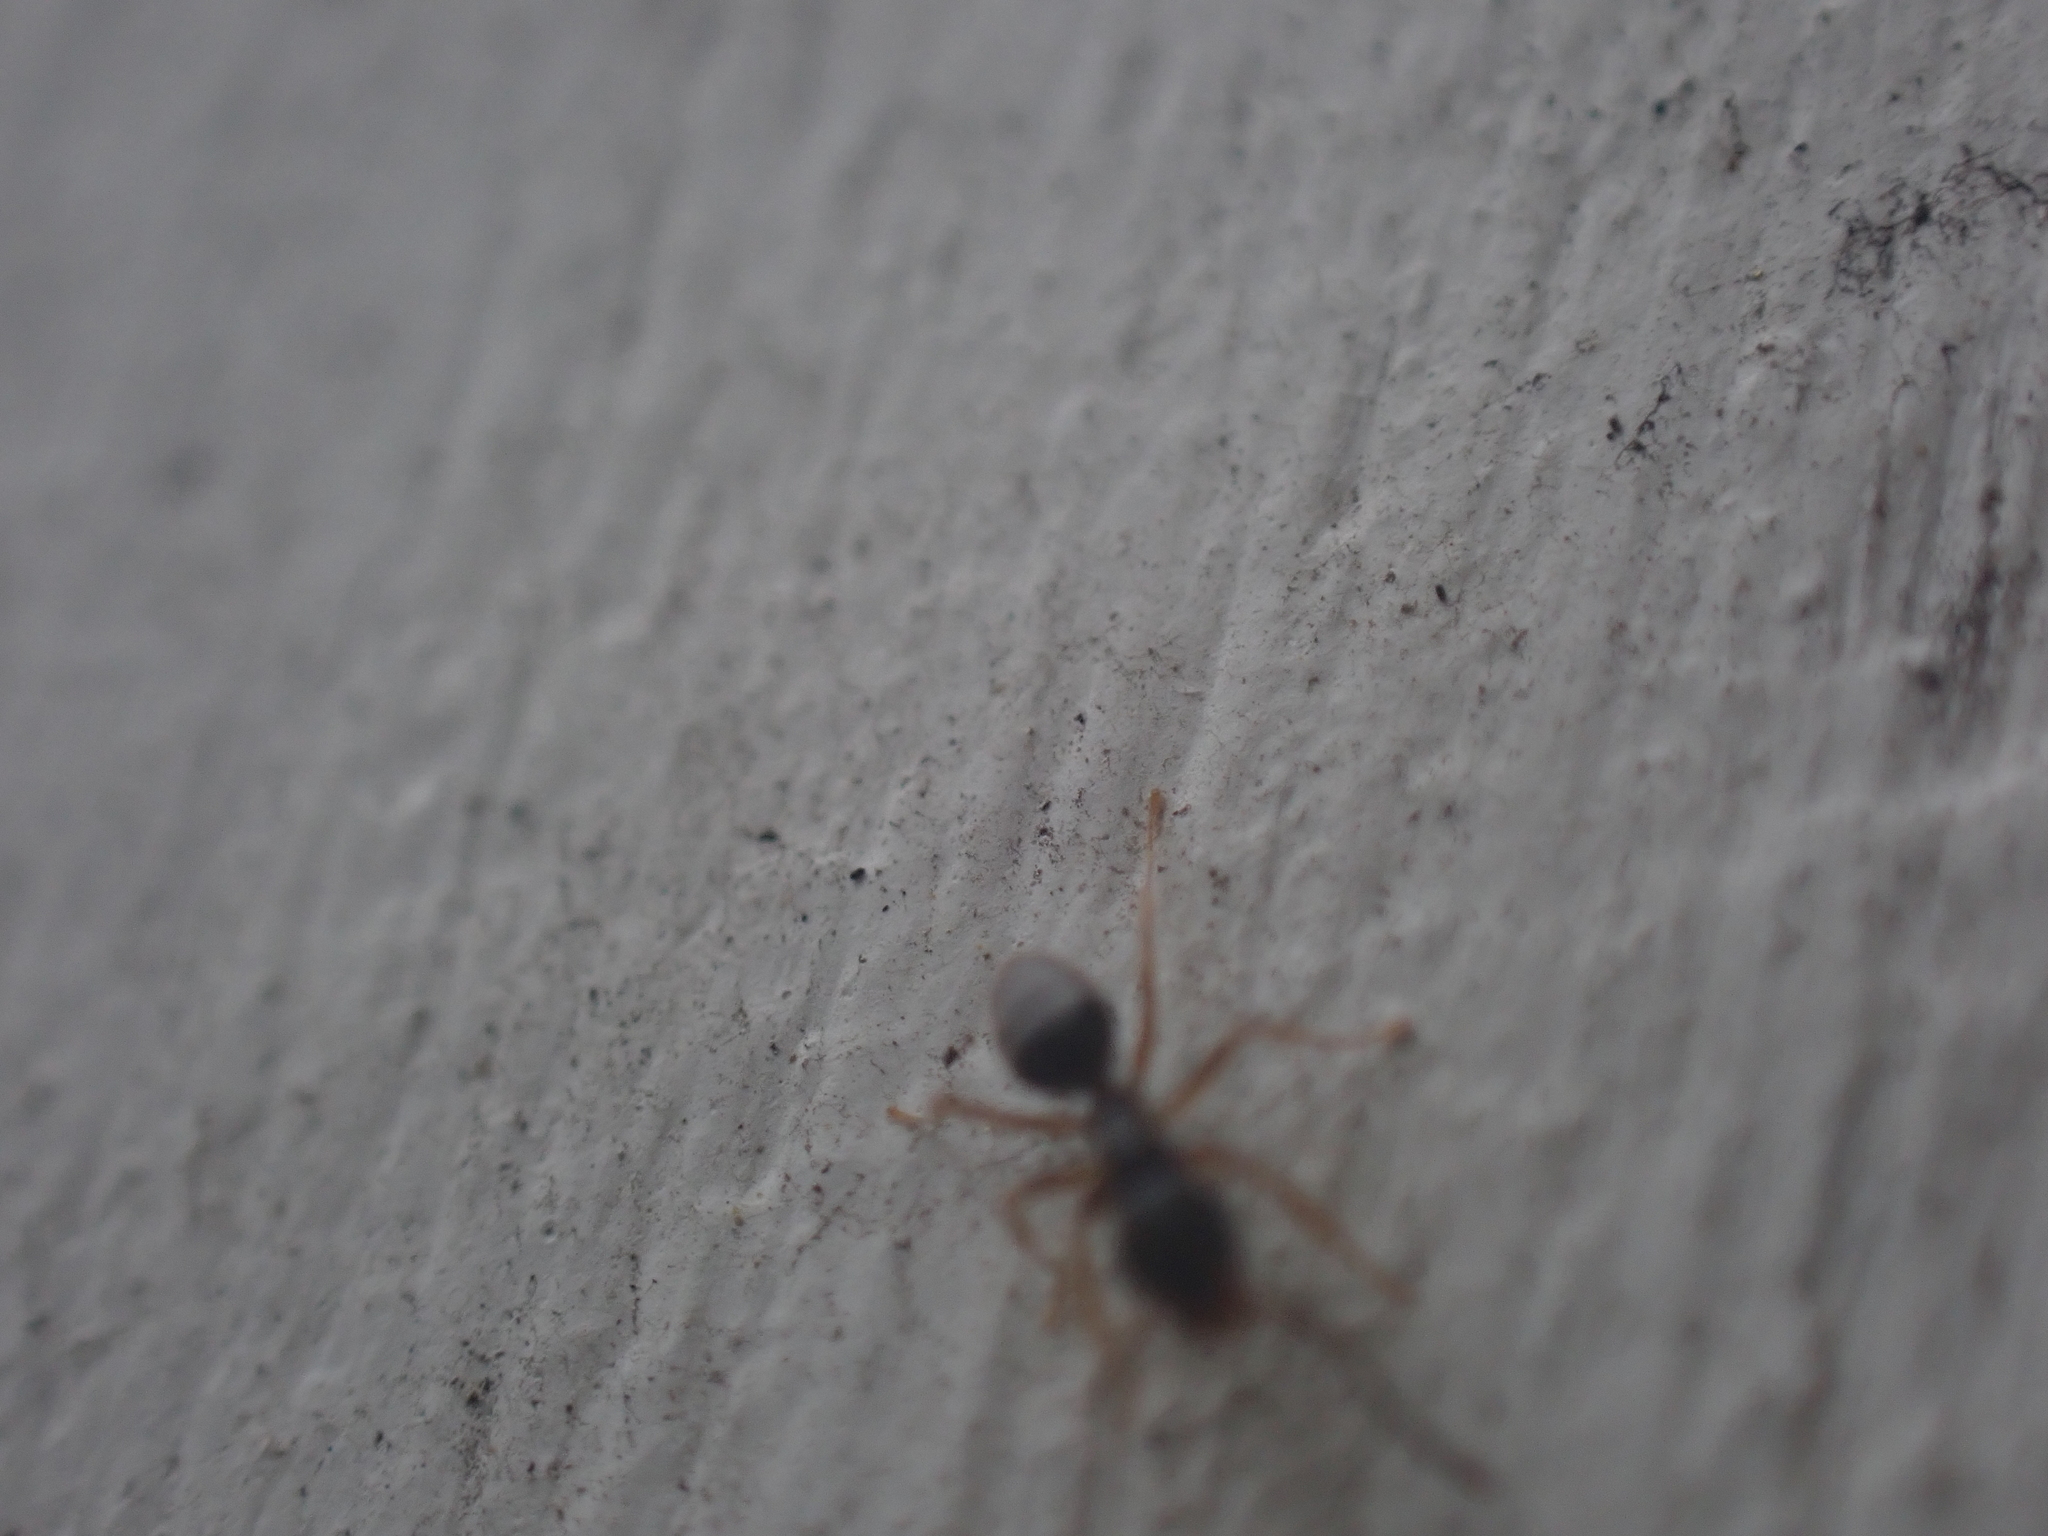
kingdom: Animalia
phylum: Arthropoda
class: Insecta
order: Hymenoptera
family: Formicidae
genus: Tapinoma
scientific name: Tapinoma sessile
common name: Odorous house ant
